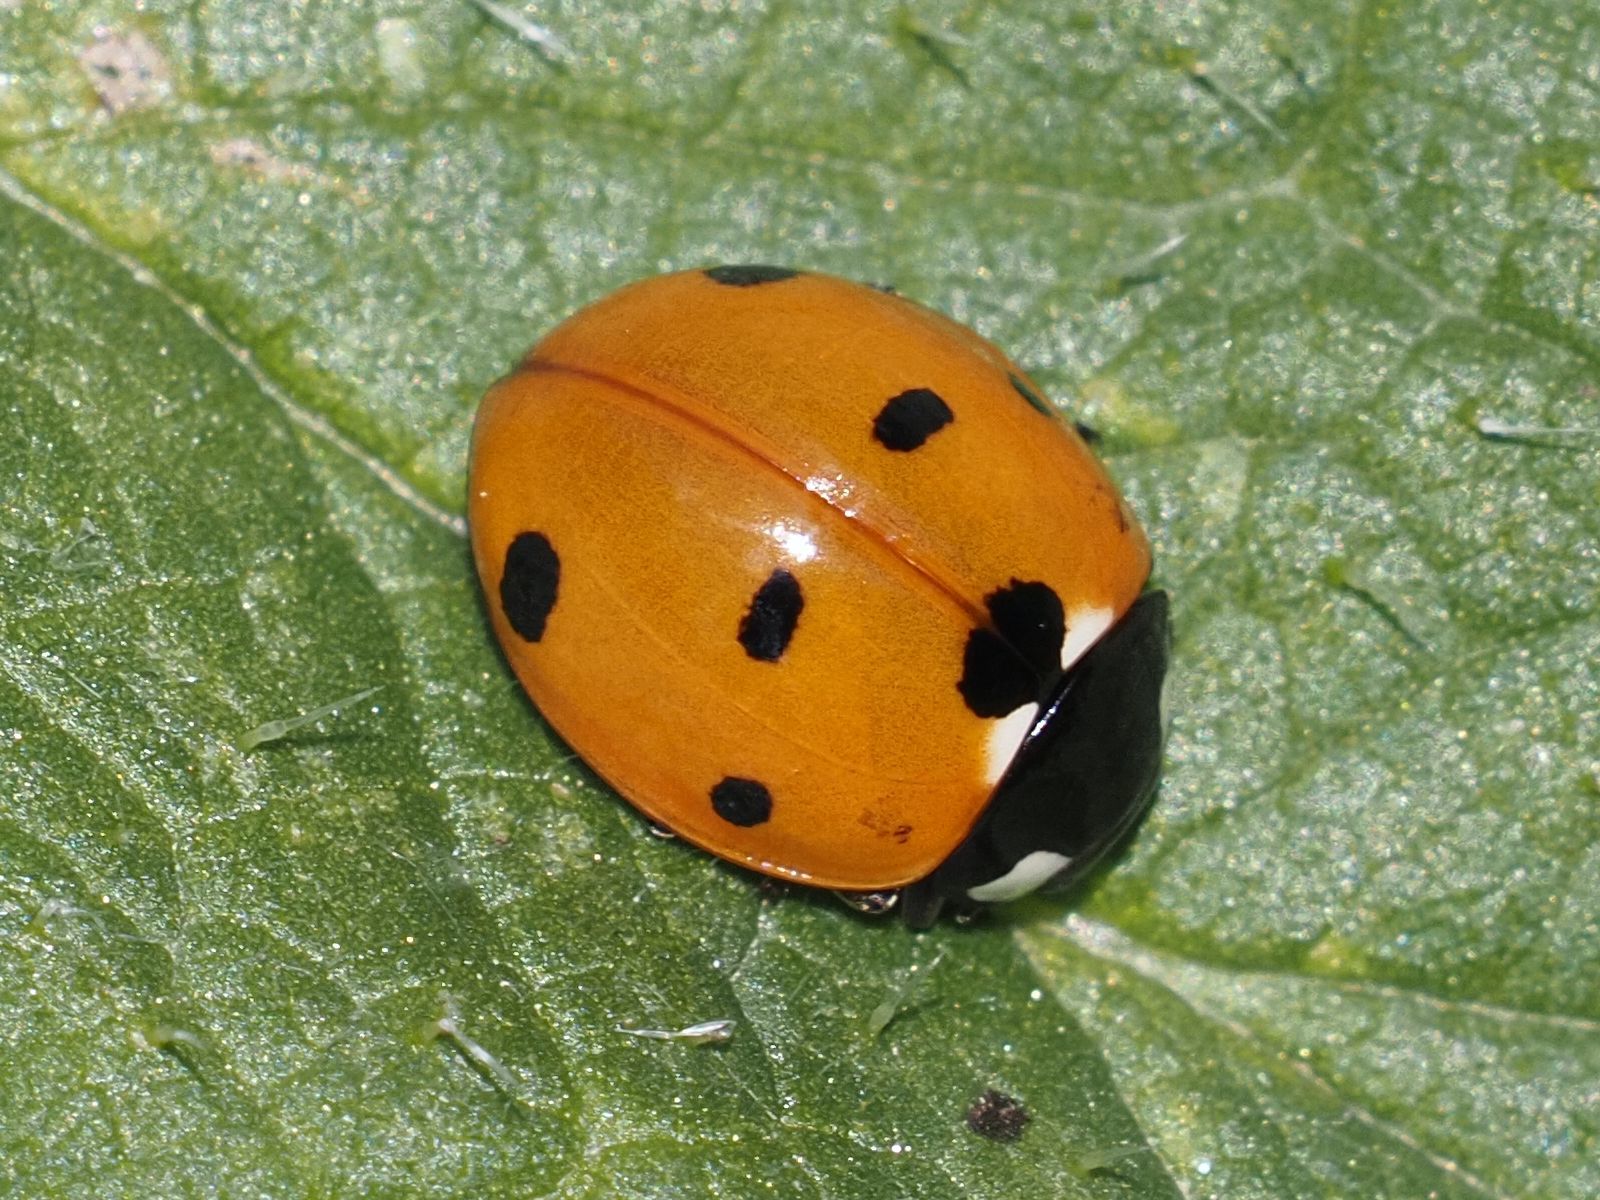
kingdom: Animalia
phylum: Arthropoda
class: Insecta
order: Coleoptera
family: Coccinellidae
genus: Coccinella
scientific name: Coccinella septempunctata
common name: Sevenspotted lady beetle
